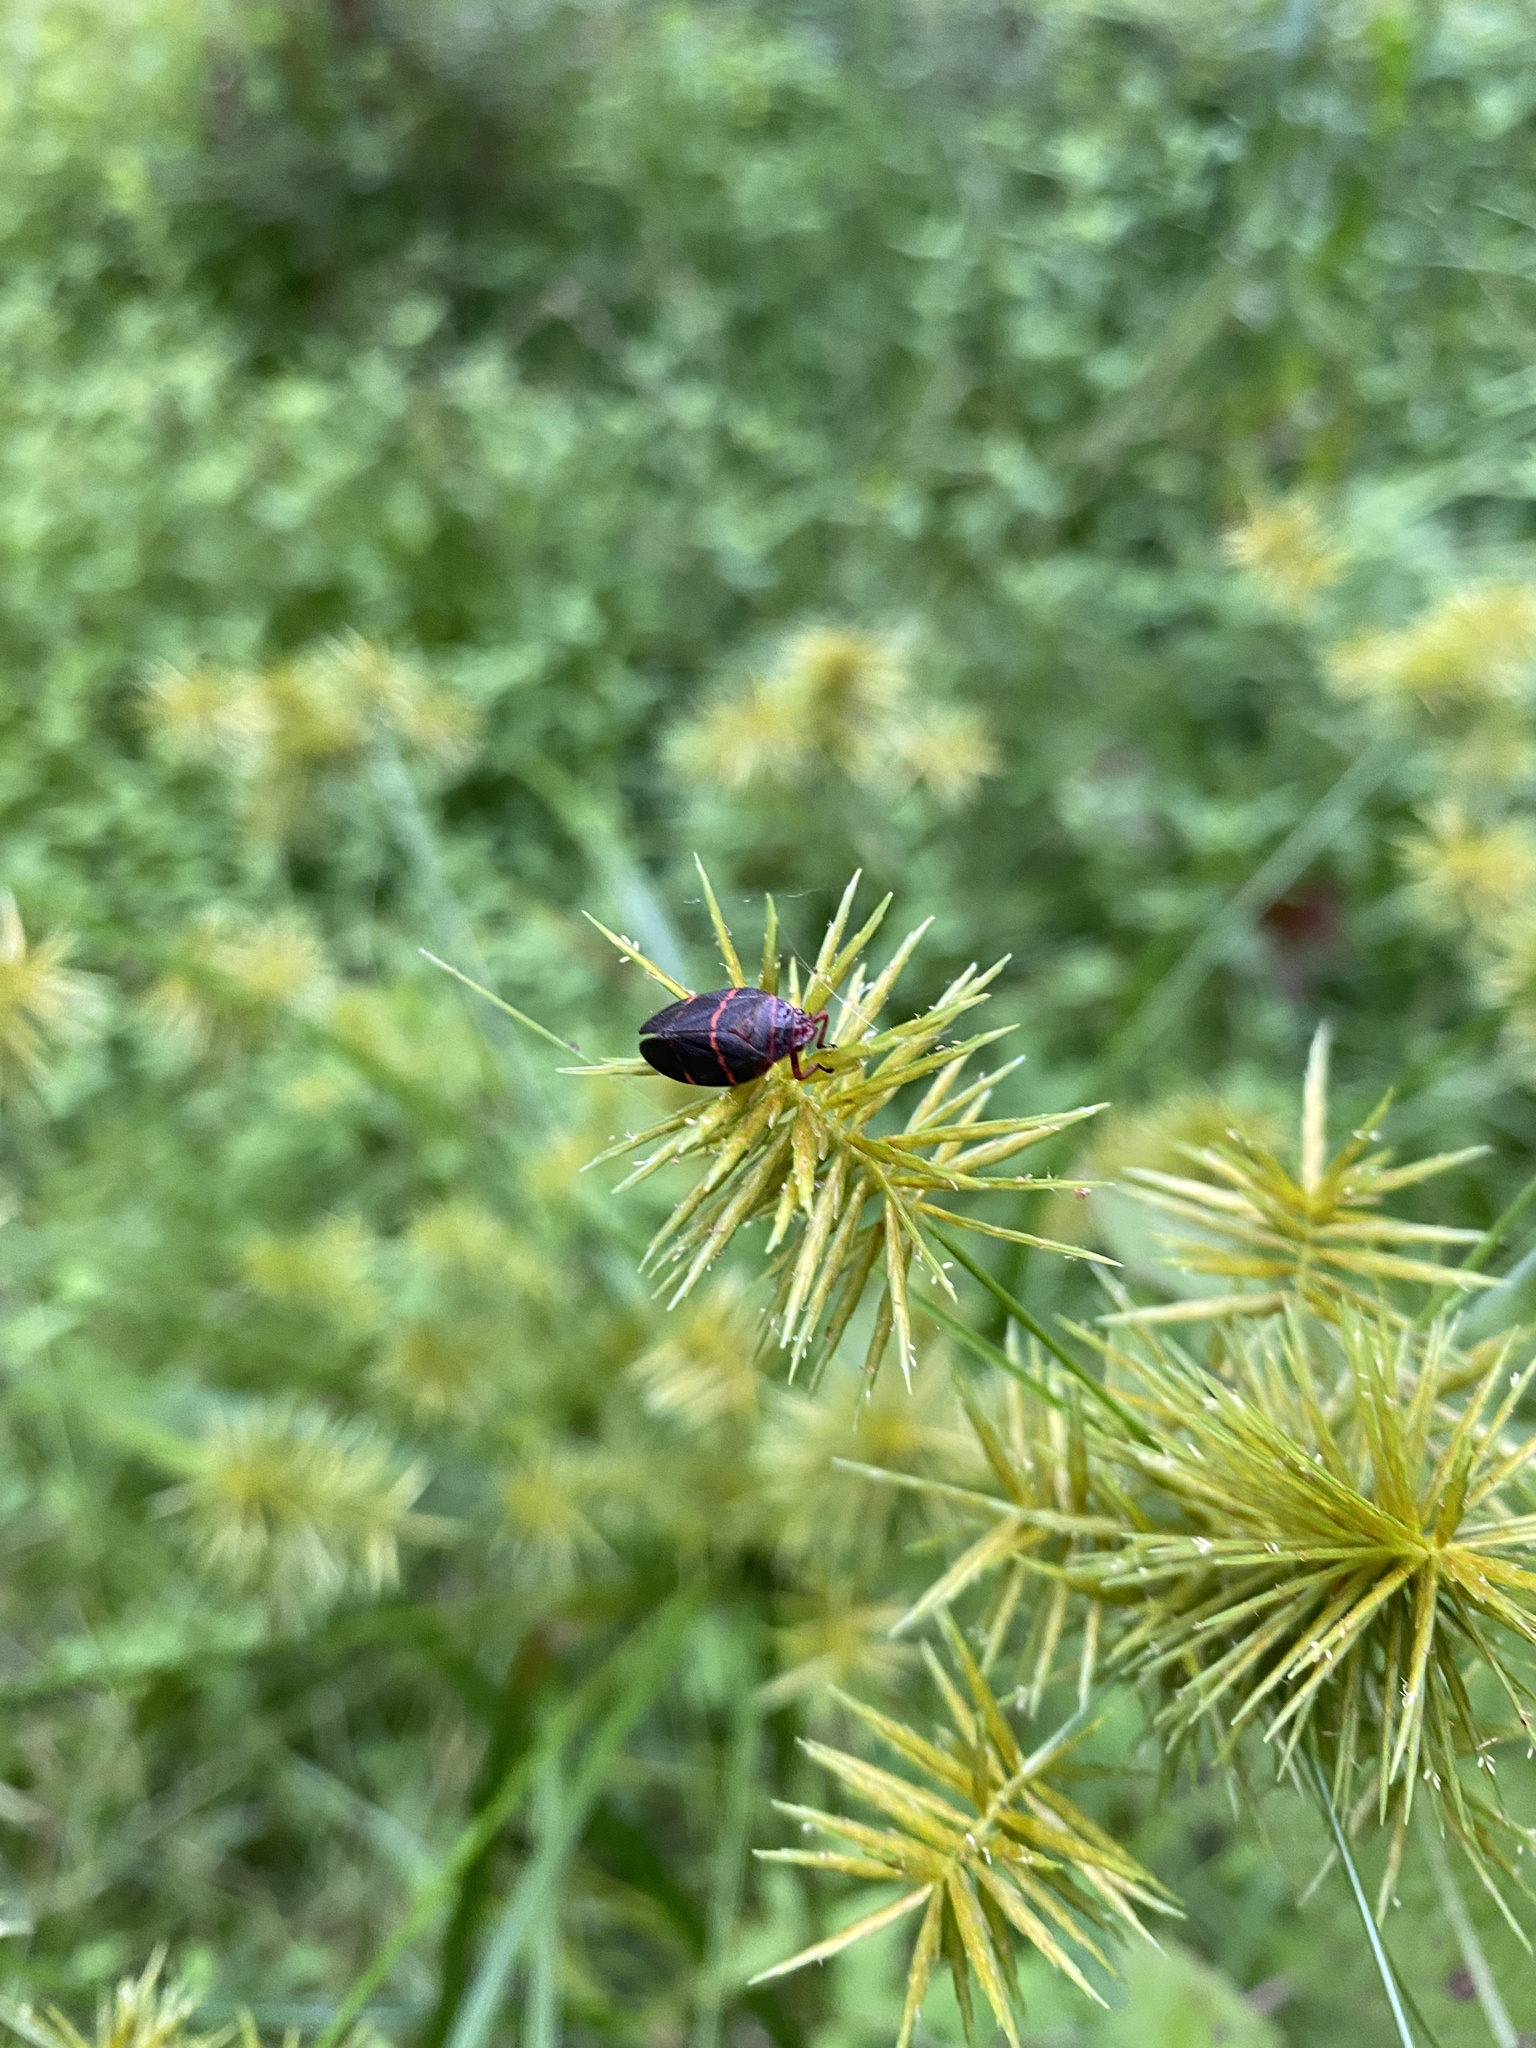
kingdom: Animalia
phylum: Arthropoda
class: Insecta
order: Hemiptera
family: Cercopidae
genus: Prosapia
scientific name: Prosapia bicincta
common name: Twolined spittlebug
